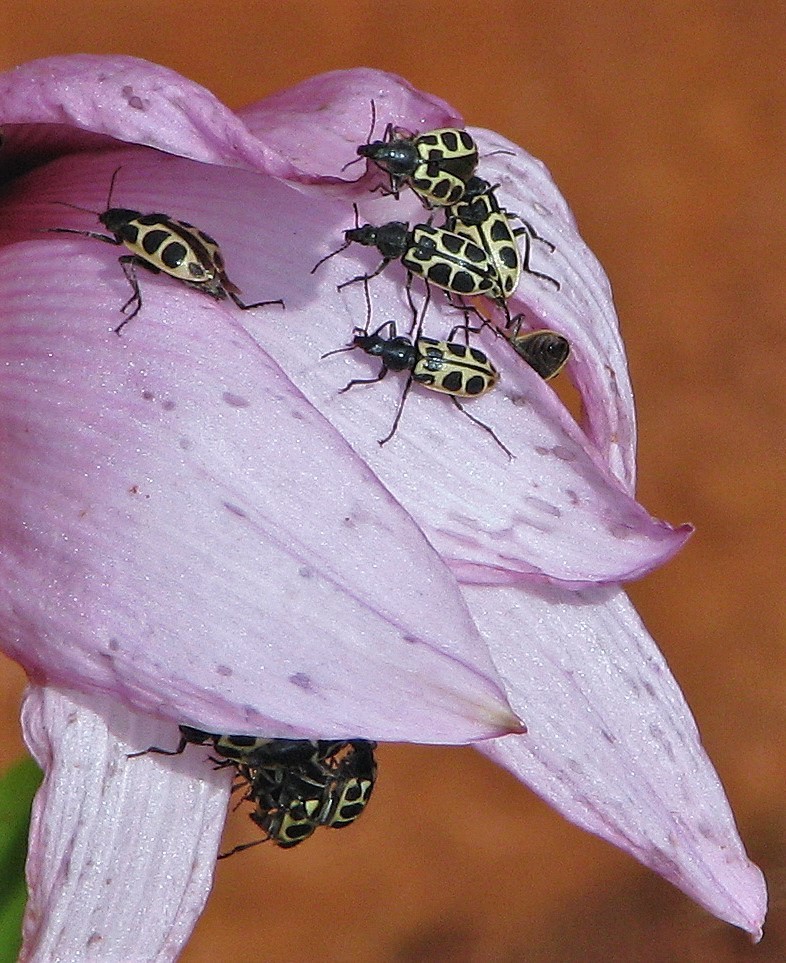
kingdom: Animalia
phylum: Arthropoda
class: Insecta
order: Coleoptera
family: Melyridae
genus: Astylus
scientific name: Astylus
